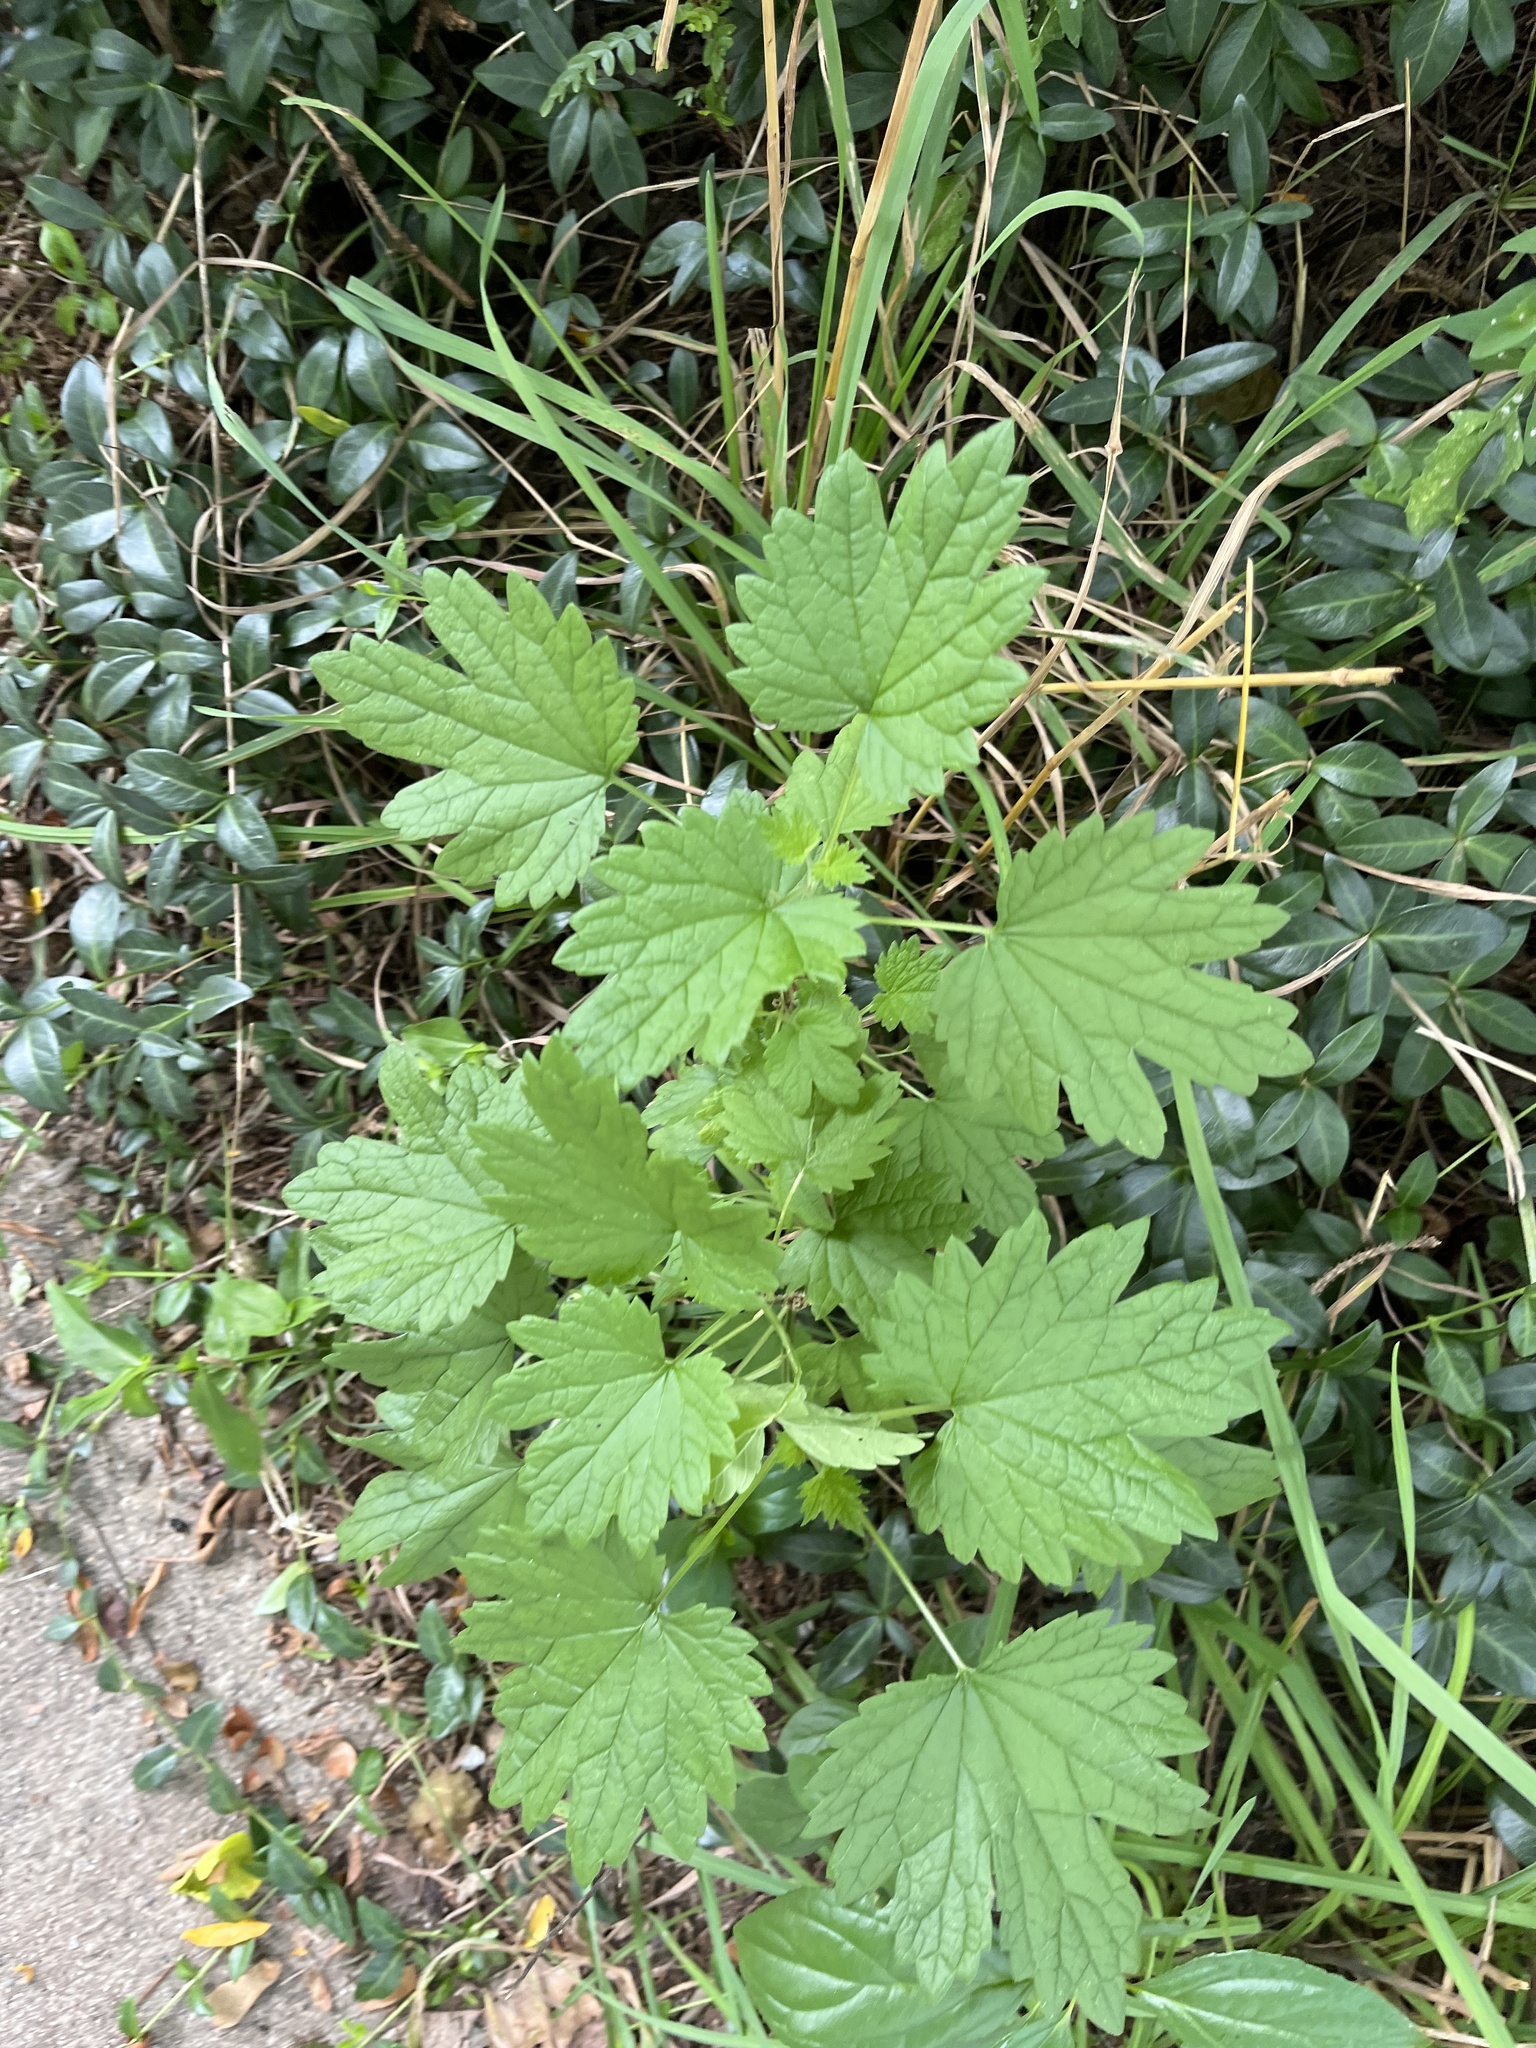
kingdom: Plantae
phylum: Tracheophyta
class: Magnoliopsida
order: Lamiales
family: Lamiaceae
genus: Leonurus
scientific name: Leonurus cardiaca
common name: Motherwort
